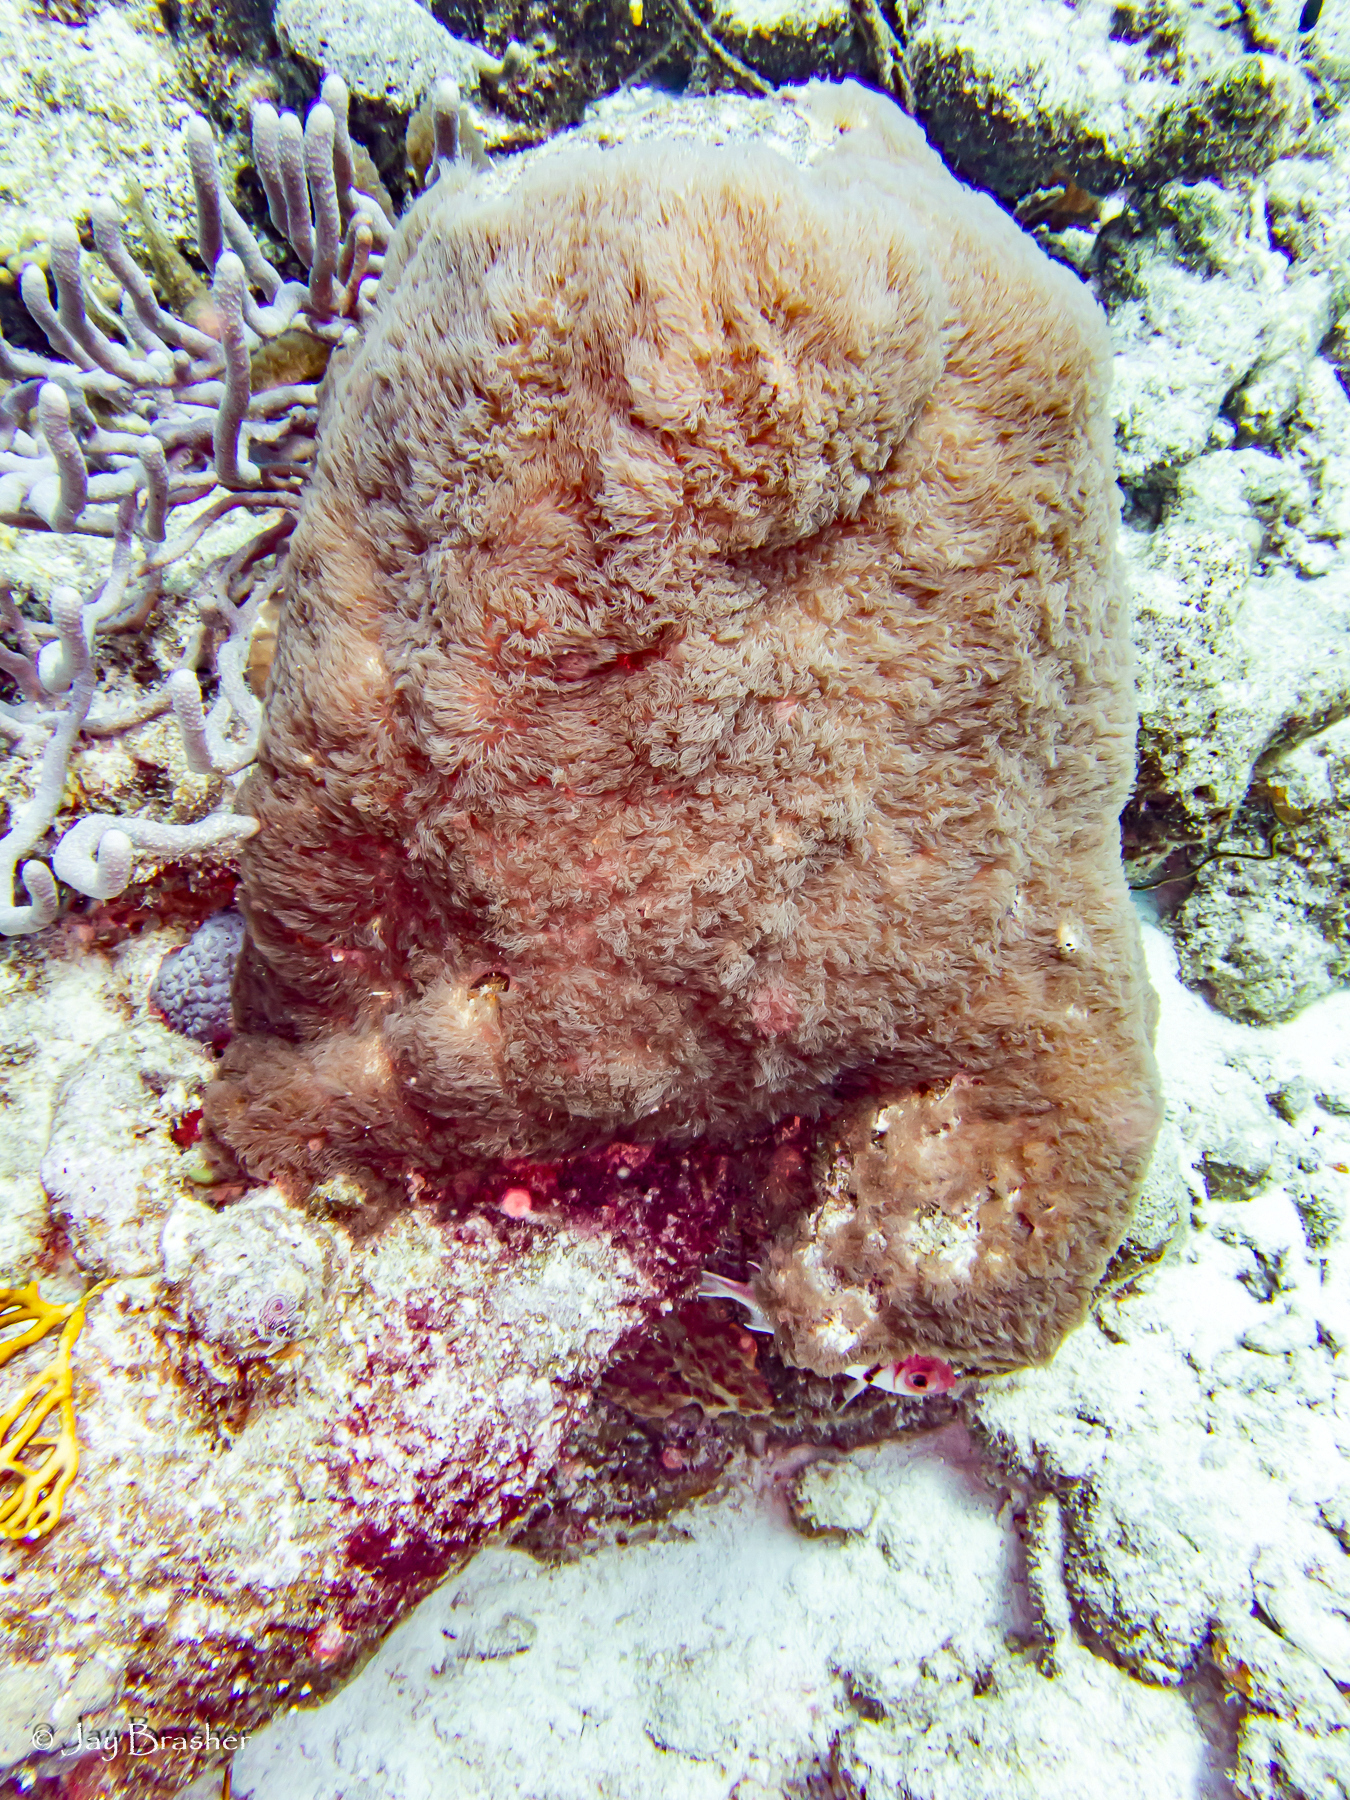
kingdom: Animalia
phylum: Cnidaria
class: Anthozoa
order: Scleralcyonacea
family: Erythropodiidae
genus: Erythropodium
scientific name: Erythropodium caribaeorum
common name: Encrusting gorgonian
